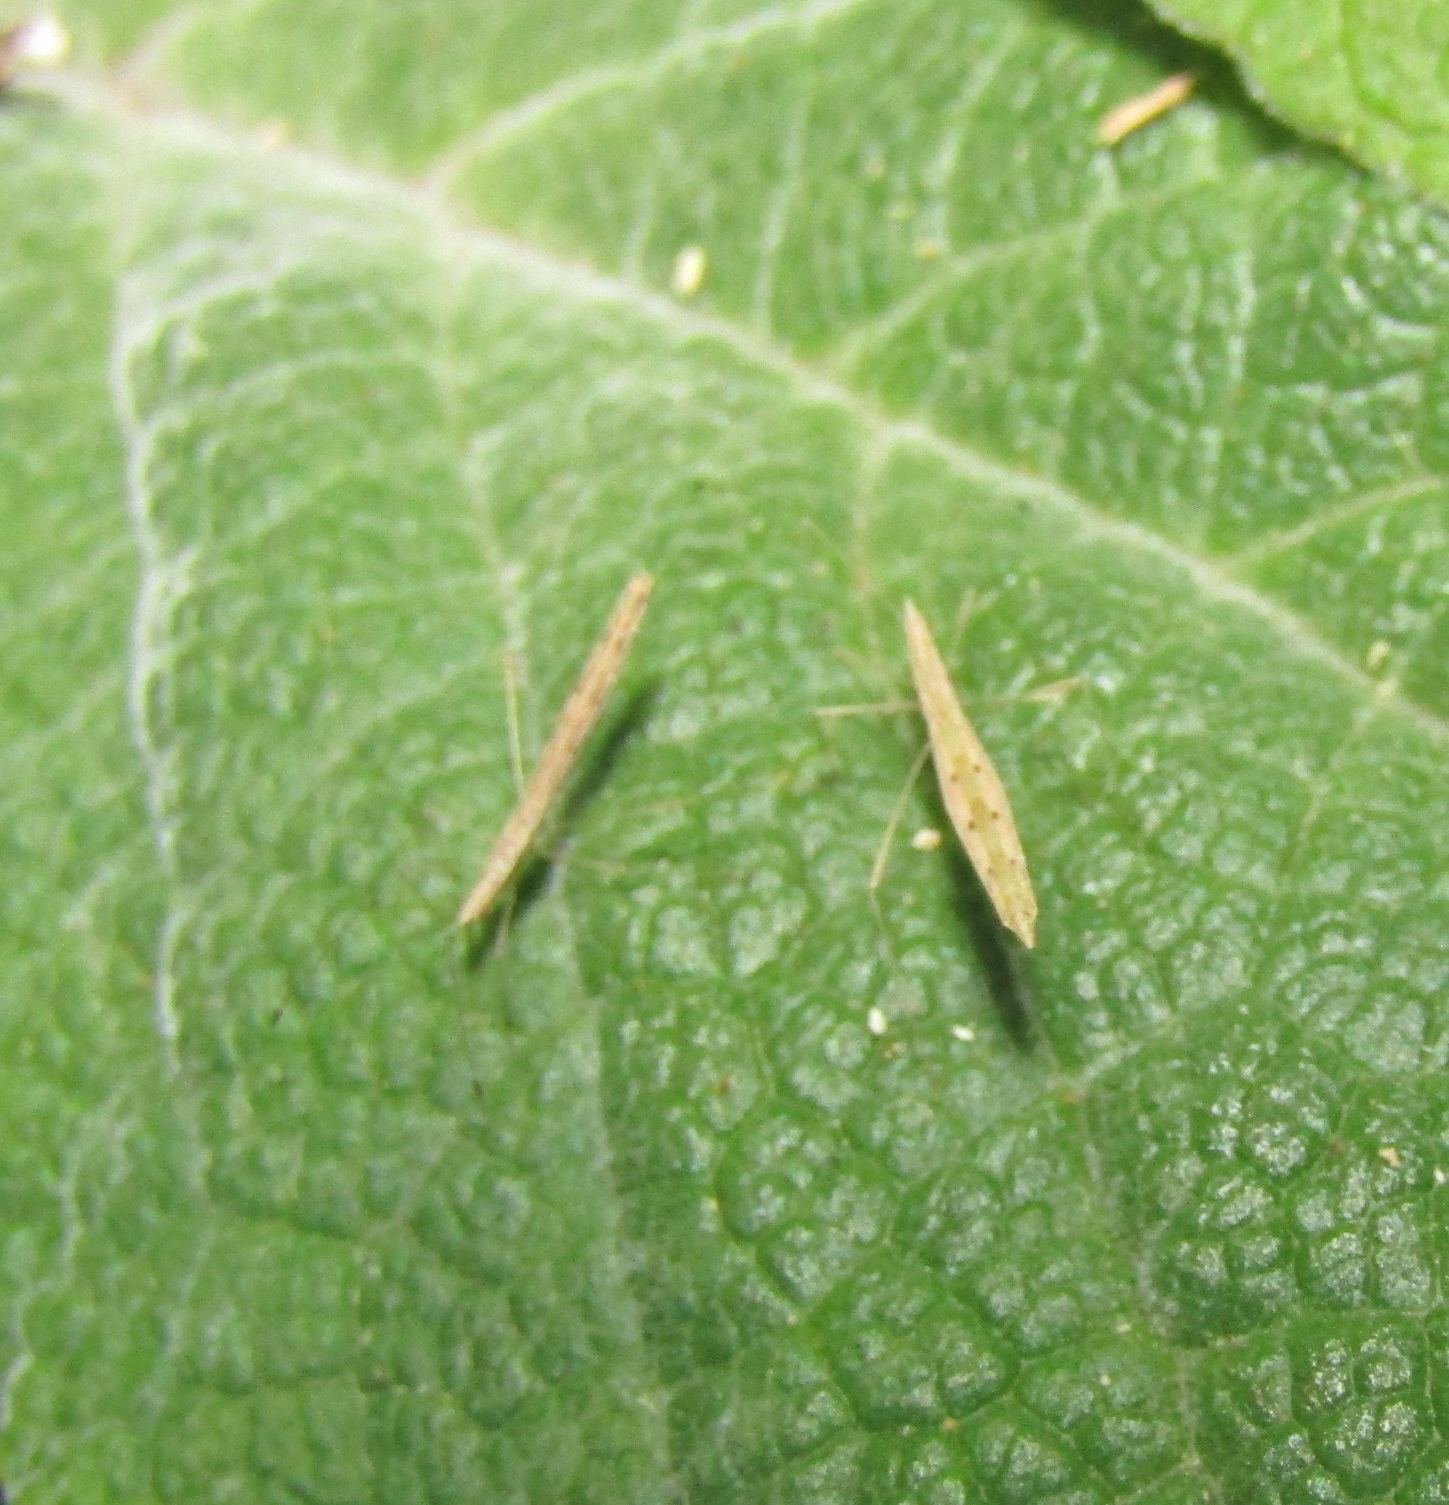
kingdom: Animalia
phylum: Arthropoda
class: Insecta
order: Hemiptera
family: Berytidae
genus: Bezu
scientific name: Bezu wakefieldi
